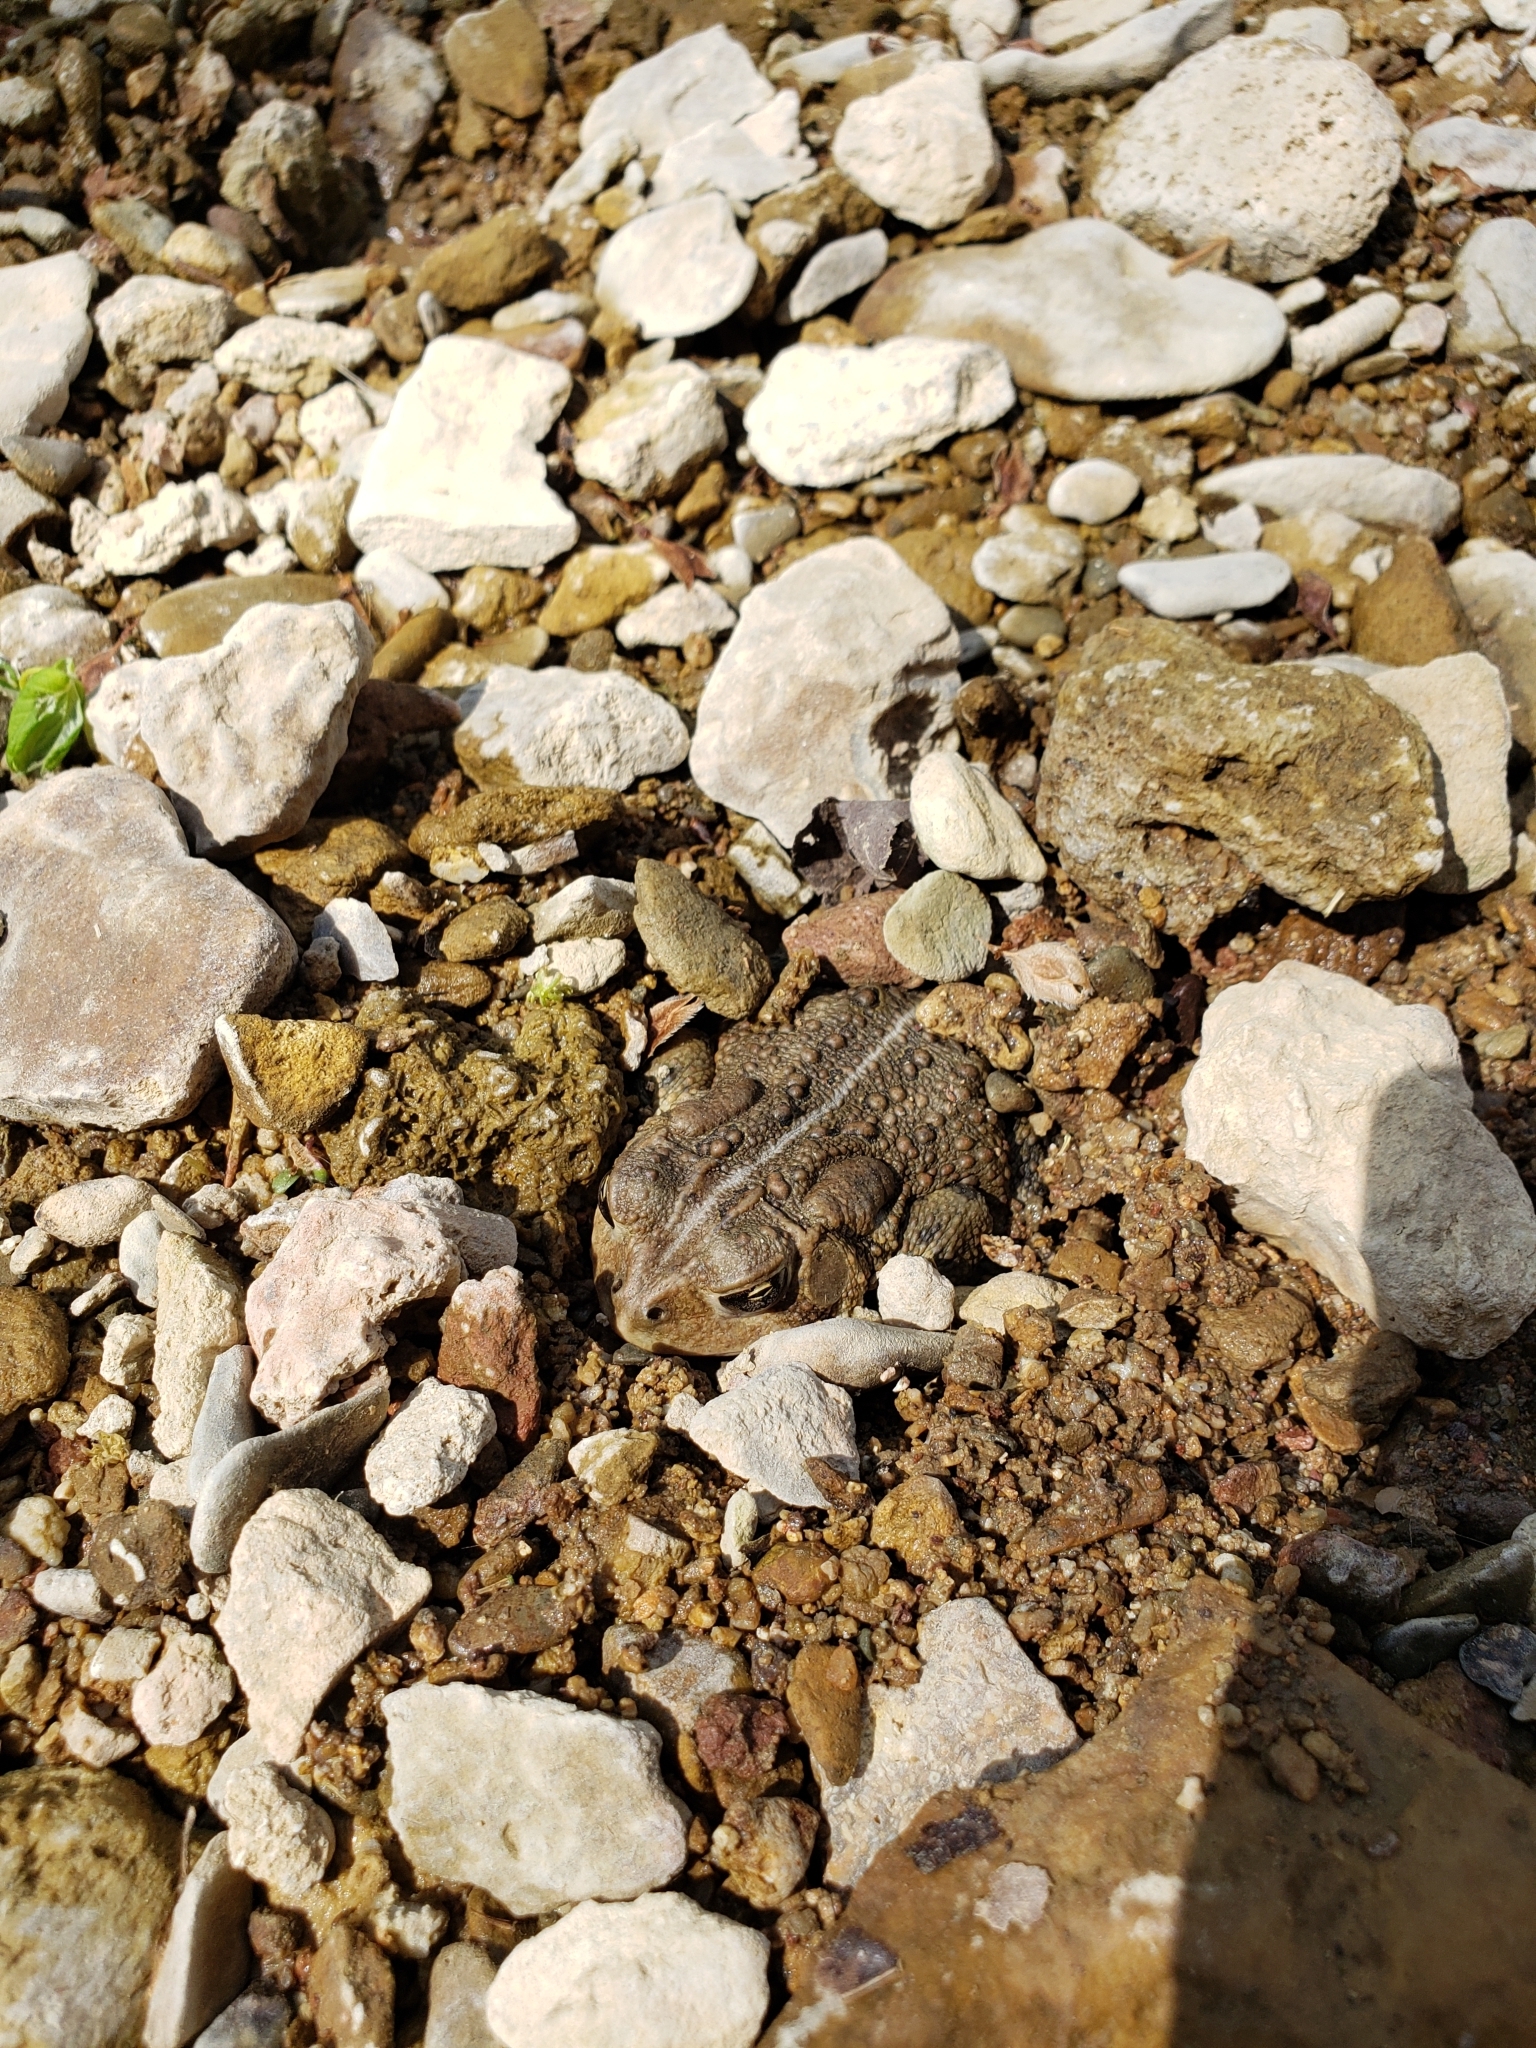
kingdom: Animalia
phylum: Chordata
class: Amphibia
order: Anura
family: Bufonidae
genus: Anaxyrus
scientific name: Anaxyrus americanus
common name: American toad
